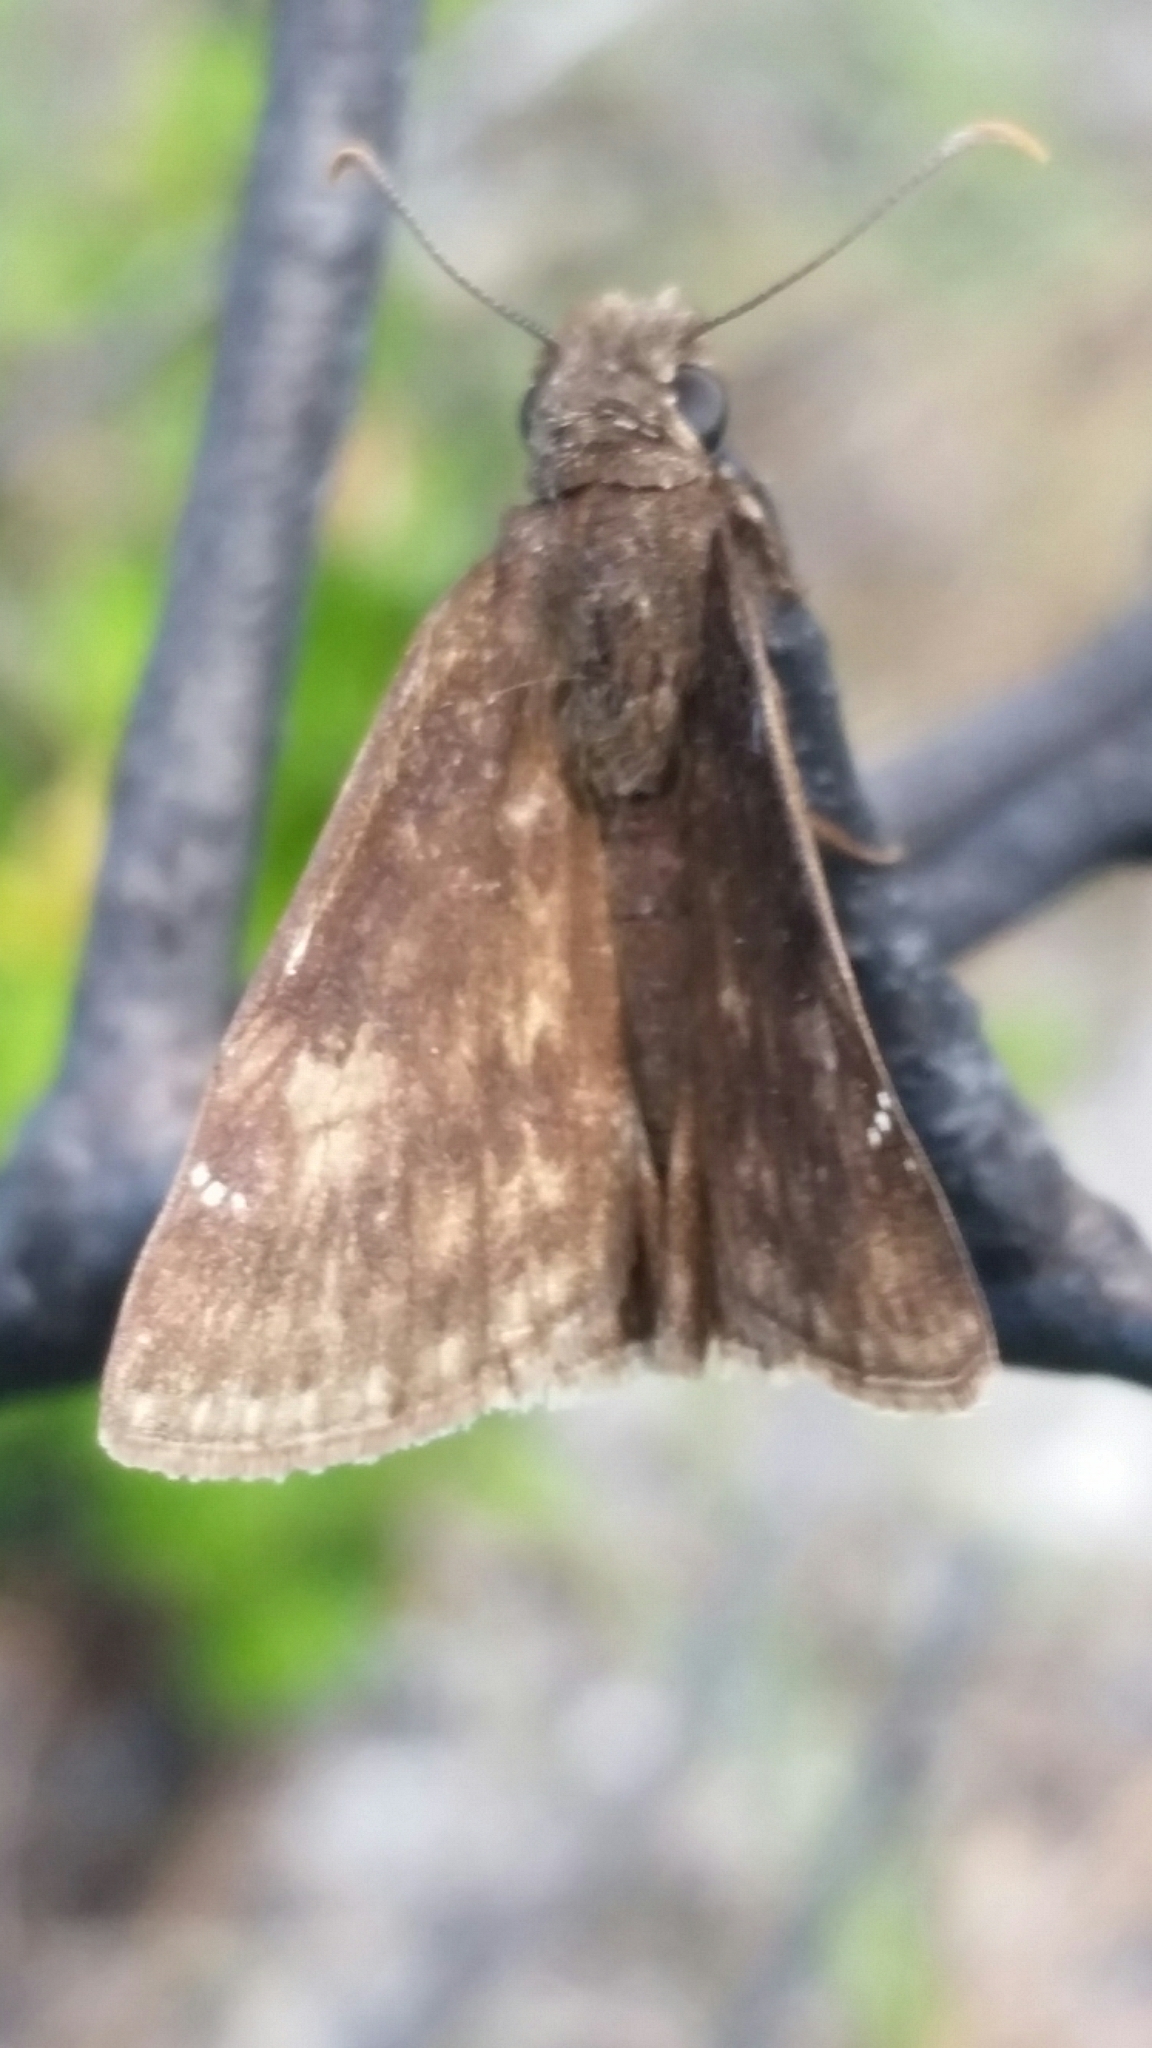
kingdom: Animalia
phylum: Arthropoda
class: Insecta
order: Lepidoptera
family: Hesperiidae
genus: Erynnis
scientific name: Erynnis zarucco
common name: Zarucco duskywing
